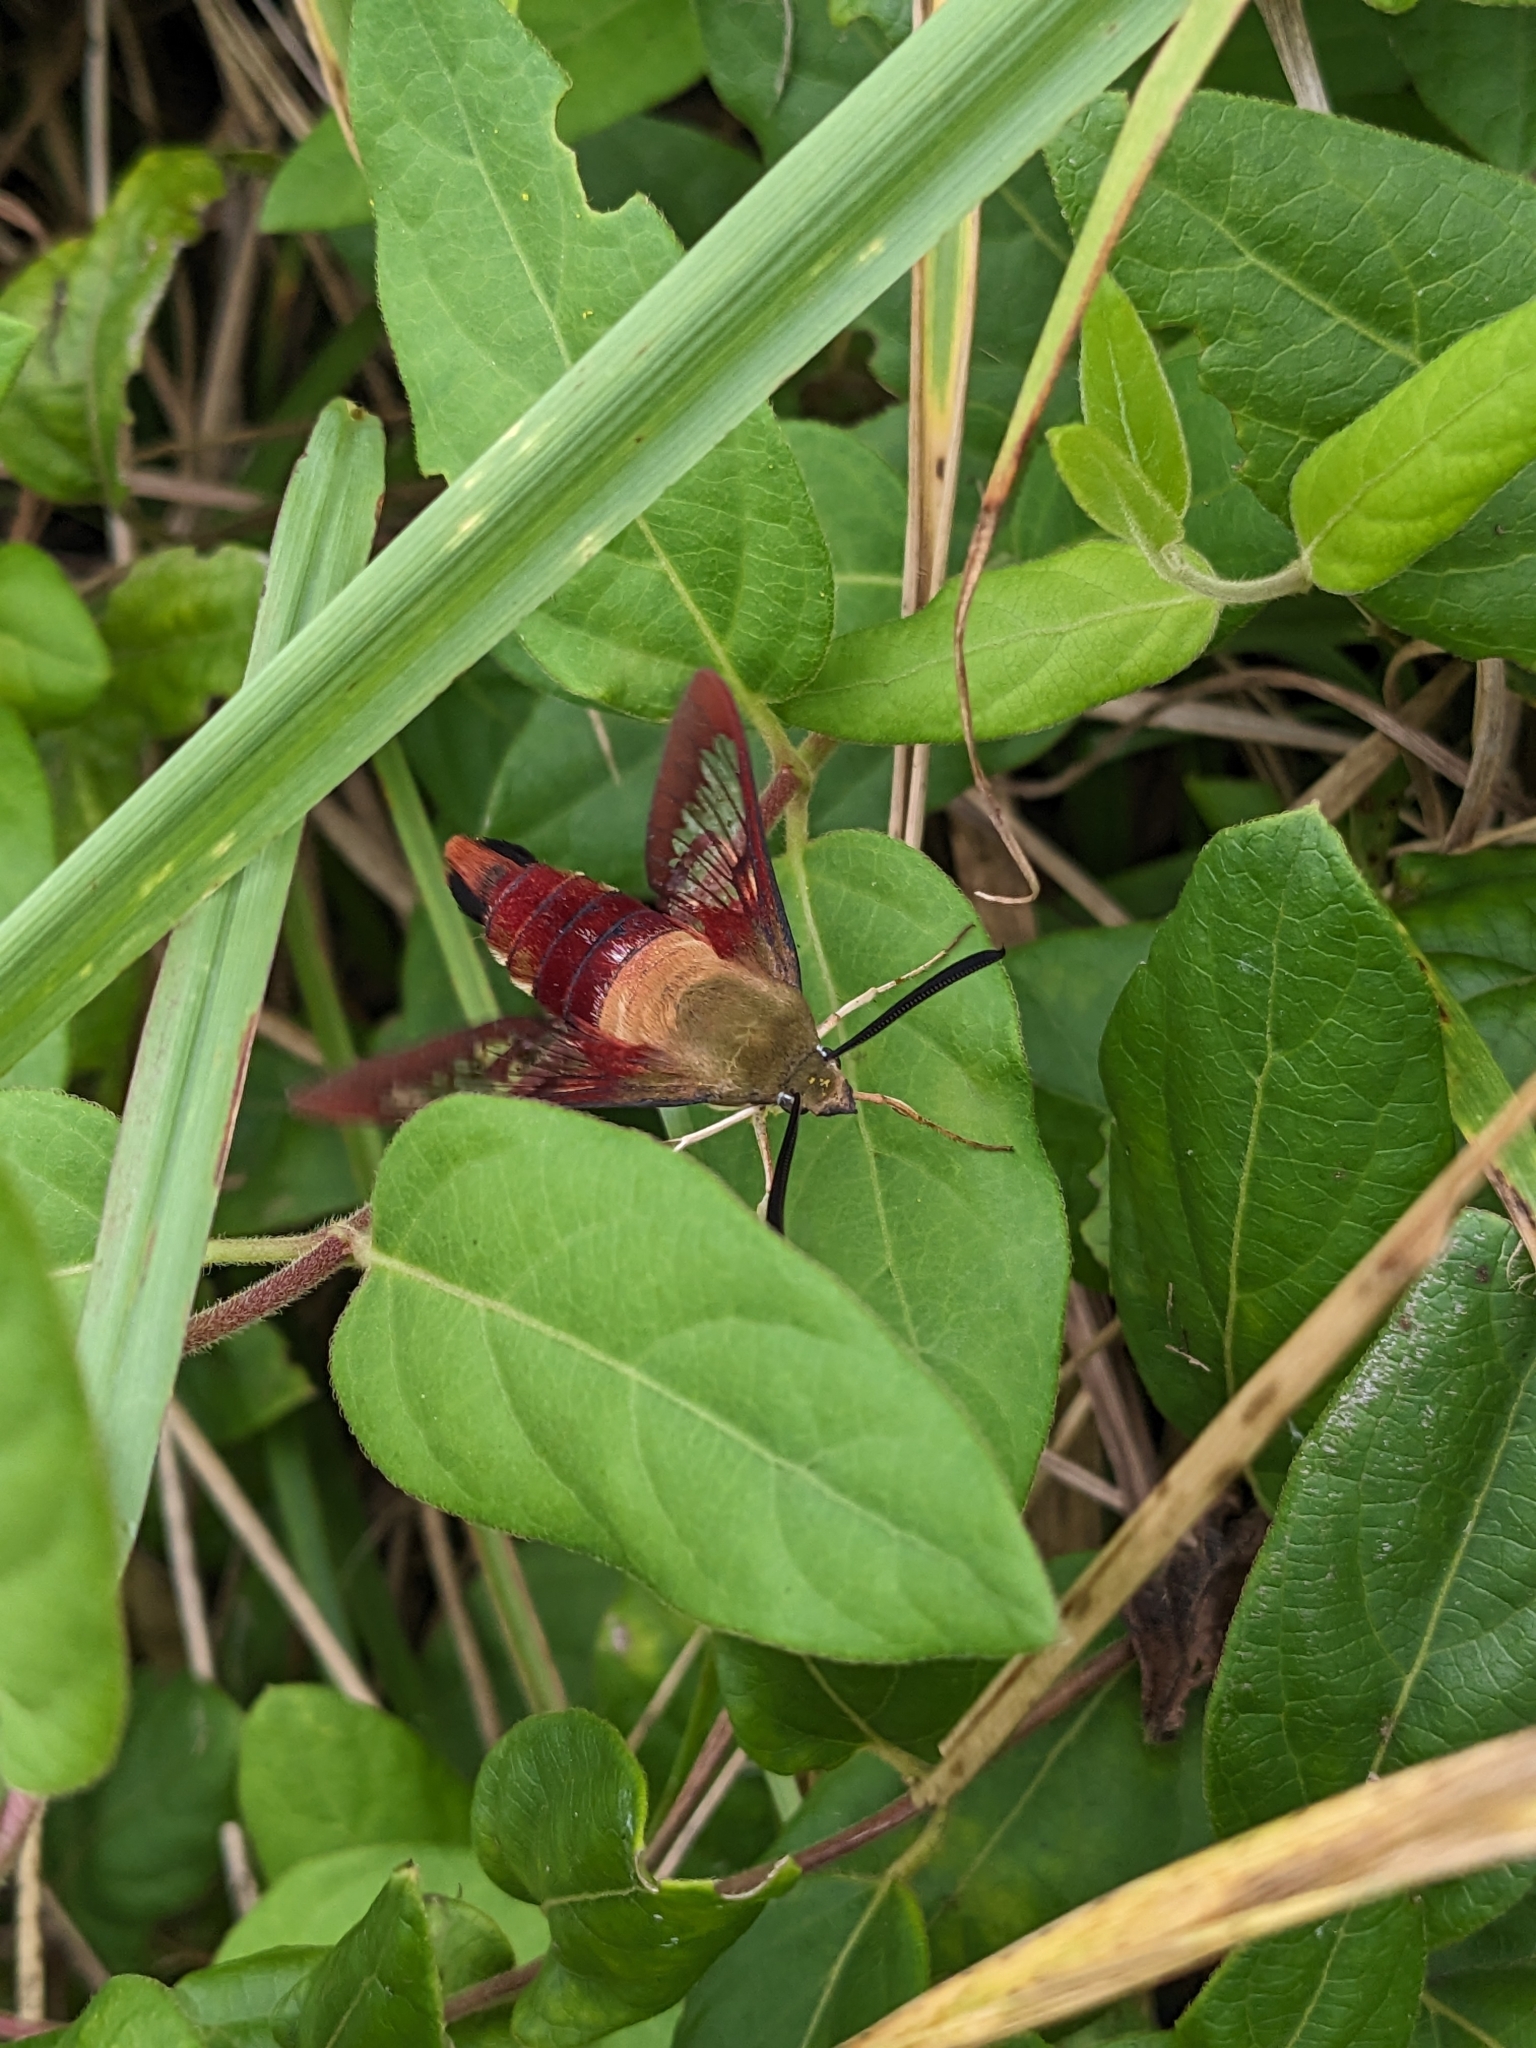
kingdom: Animalia
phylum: Arthropoda
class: Insecta
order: Lepidoptera
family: Sphingidae
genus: Hemaris
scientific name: Hemaris thysbe
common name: Common clear-wing
